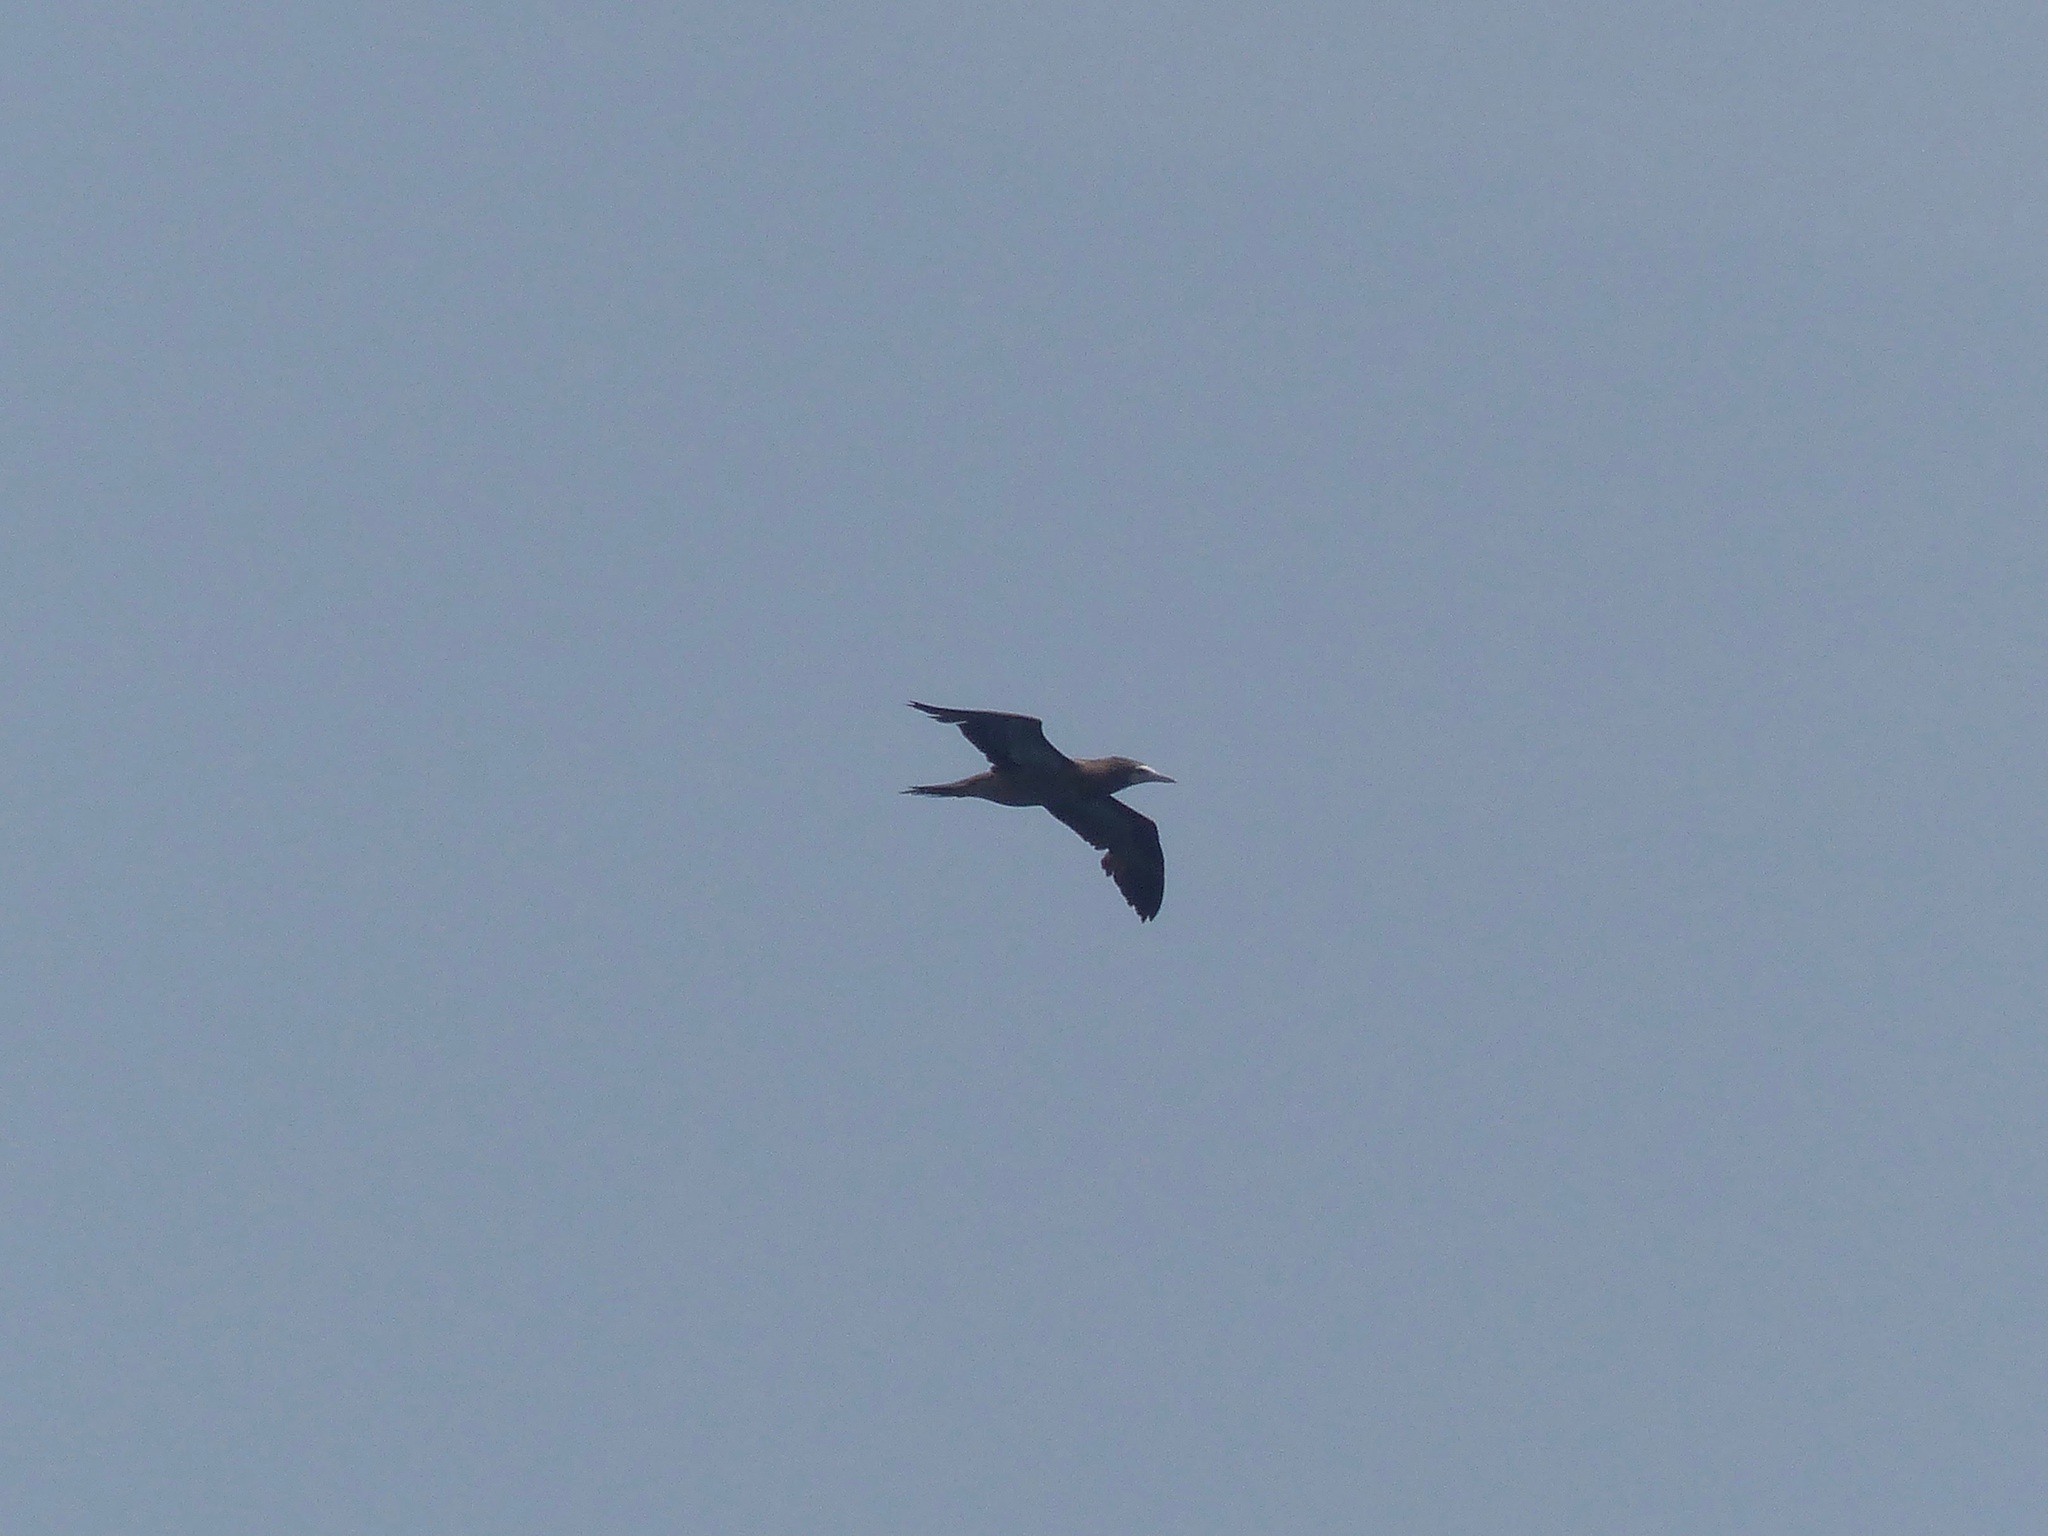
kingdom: Animalia
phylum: Chordata
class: Aves
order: Suliformes
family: Sulidae
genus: Sula
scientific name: Sula leucogaster
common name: Brown booby
